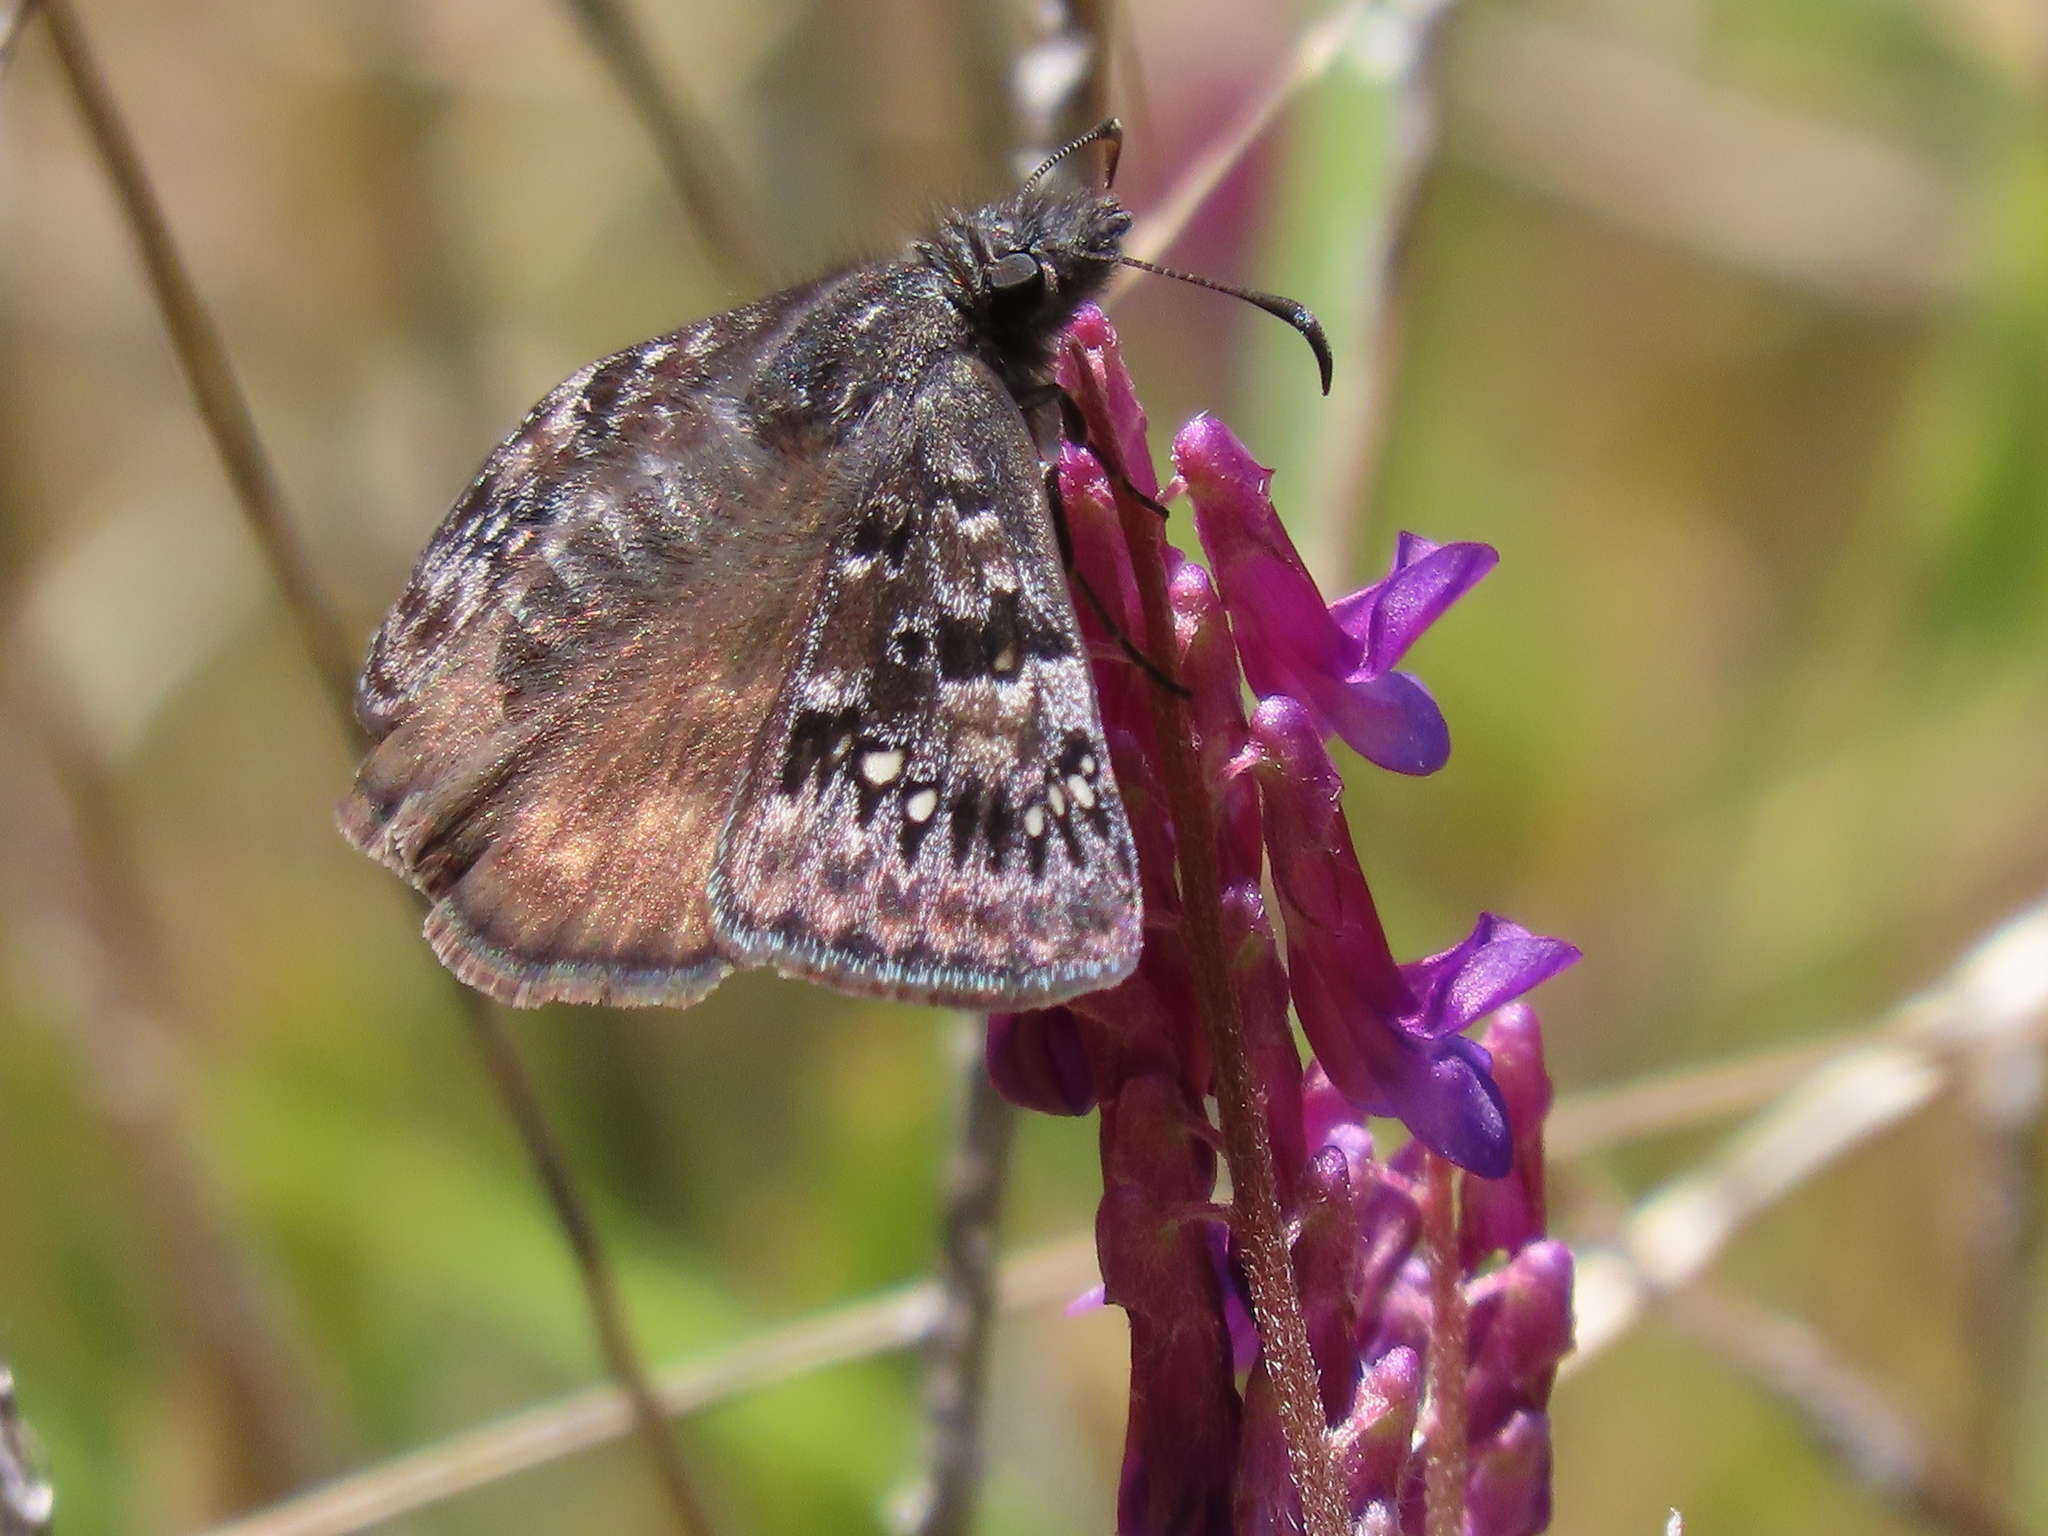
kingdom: Animalia
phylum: Arthropoda
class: Insecta
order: Lepidoptera
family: Hesperiidae
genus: Erynnis
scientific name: Erynnis propertius
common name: Propertius duskywing
